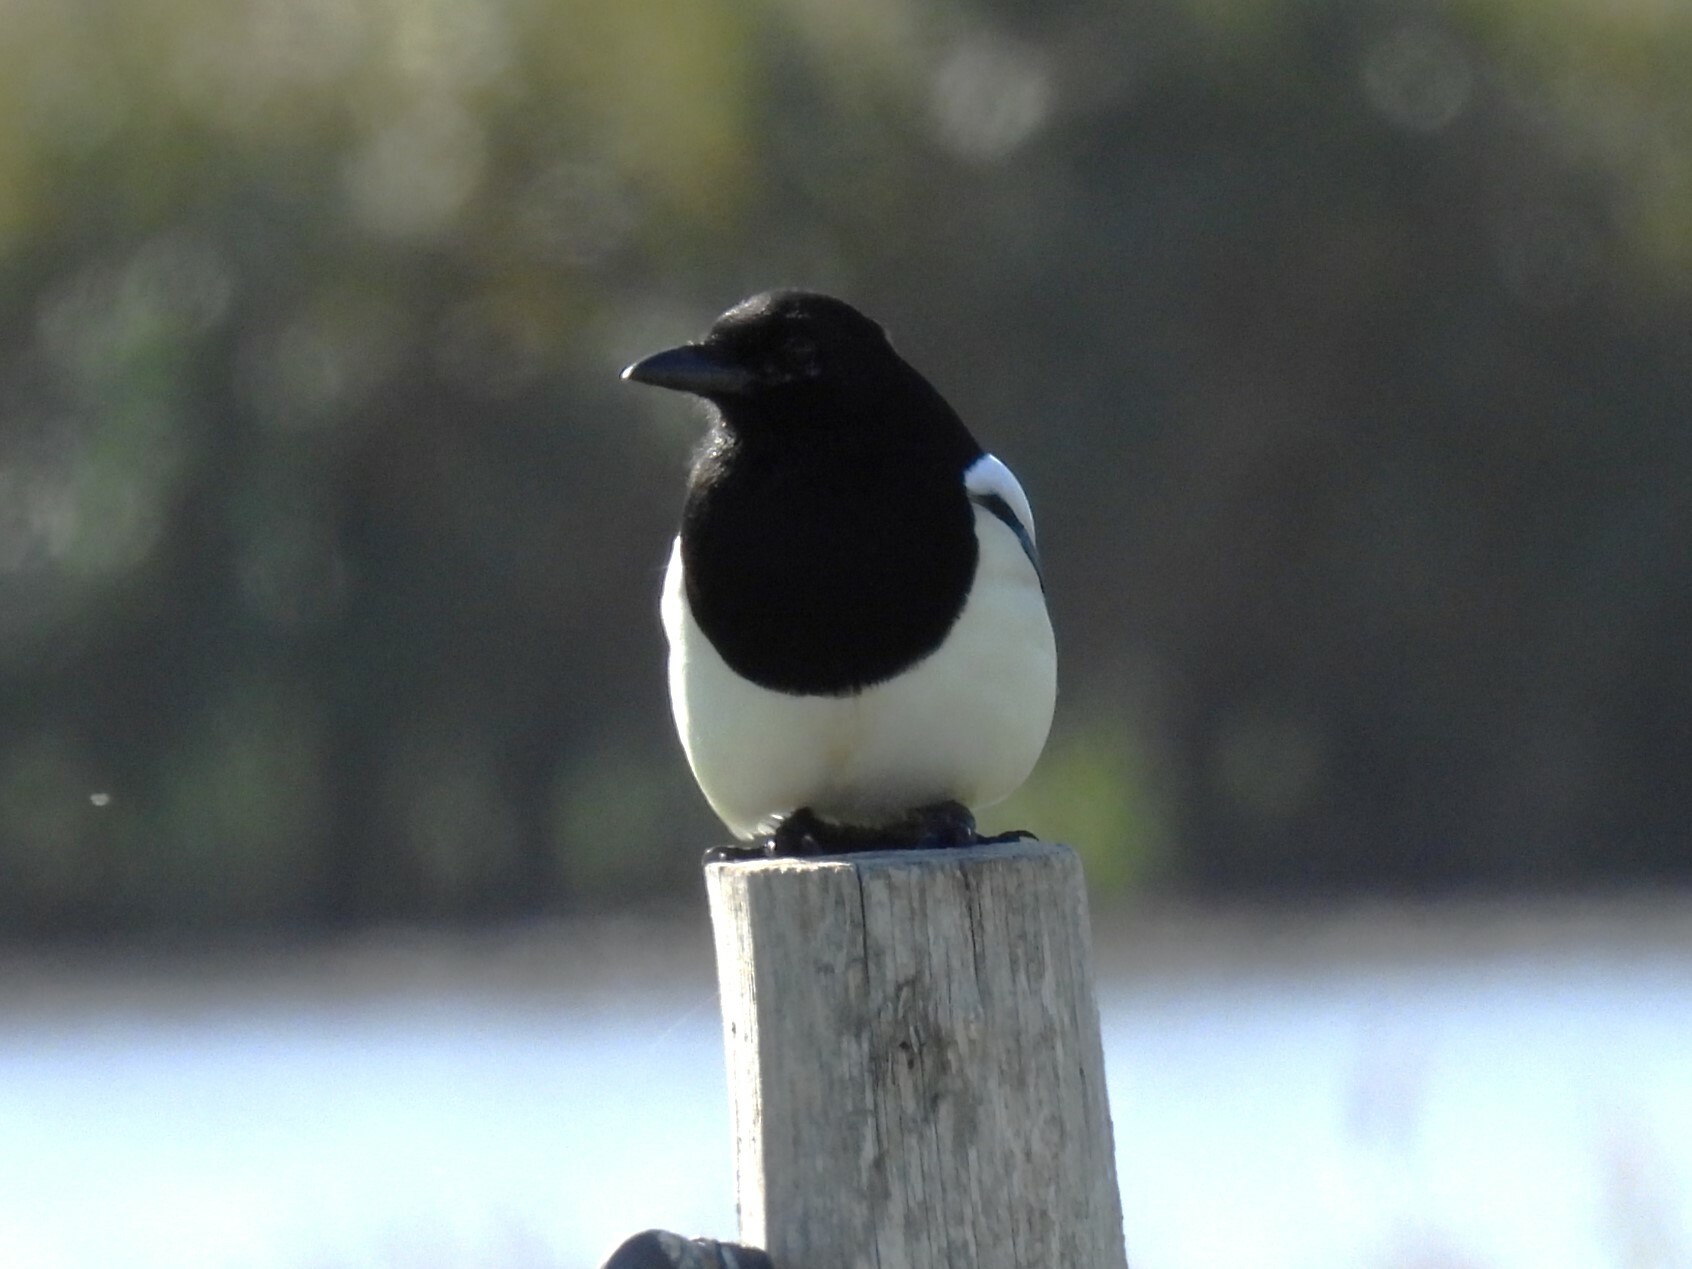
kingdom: Animalia
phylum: Chordata
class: Aves
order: Passeriformes
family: Corvidae
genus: Pica
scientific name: Pica pica
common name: Eurasian magpie
